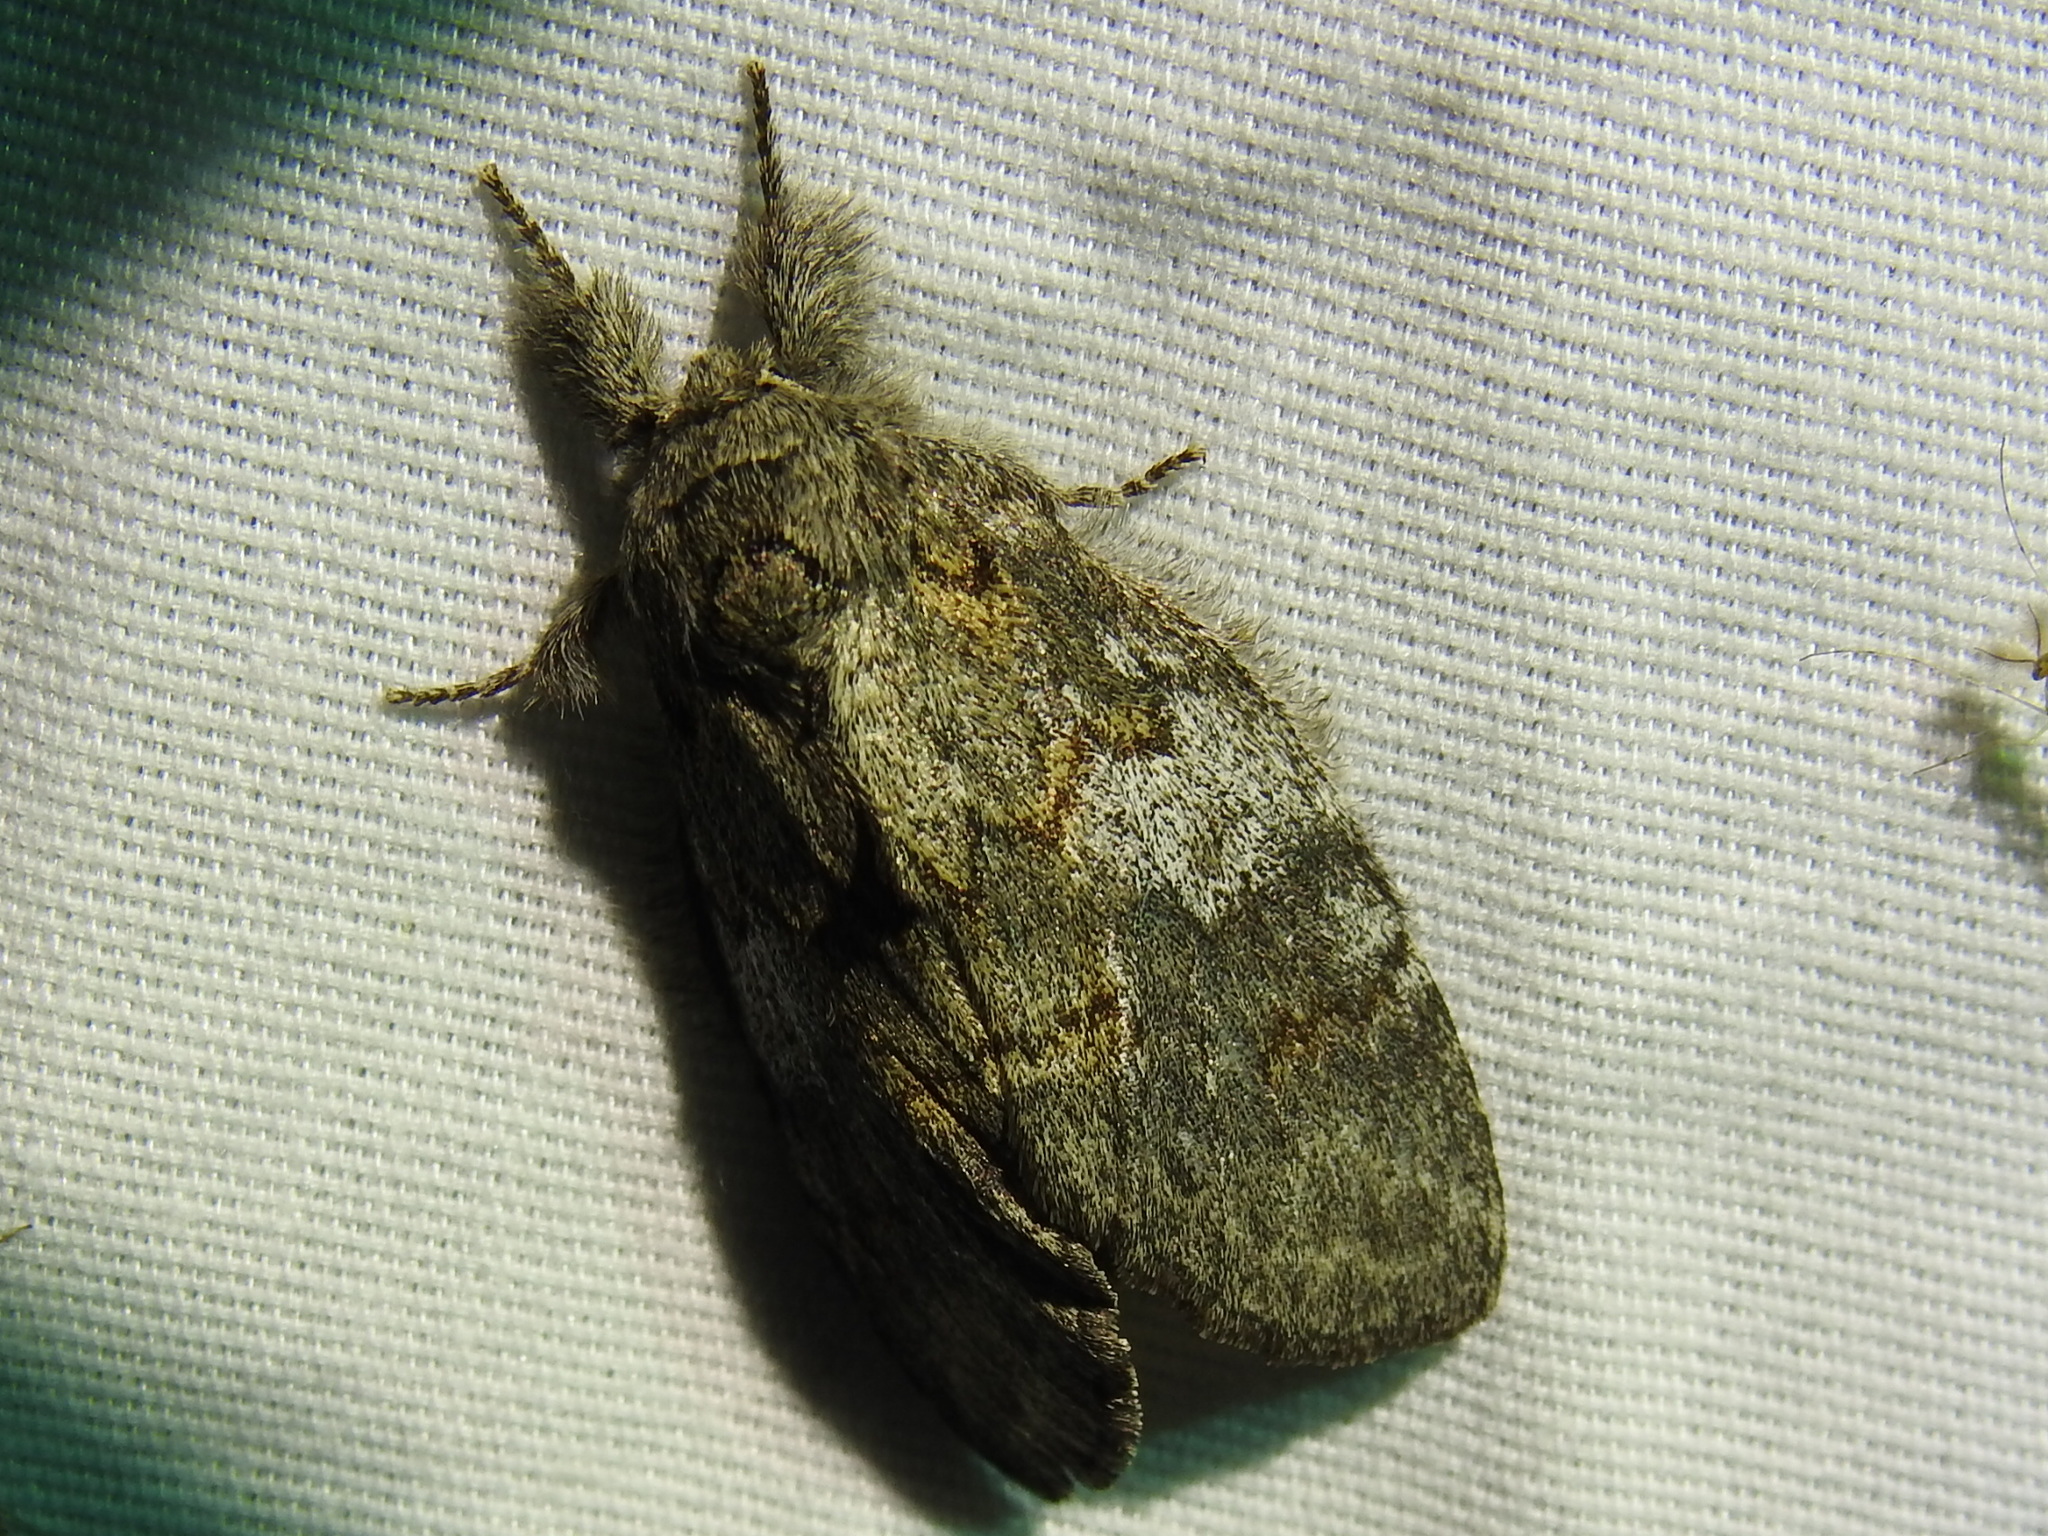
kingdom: Animalia
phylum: Arthropoda
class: Insecta
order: Lepidoptera
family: Notodontidae
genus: Peridea
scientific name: Peridea angulosa
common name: Angulose prominent
